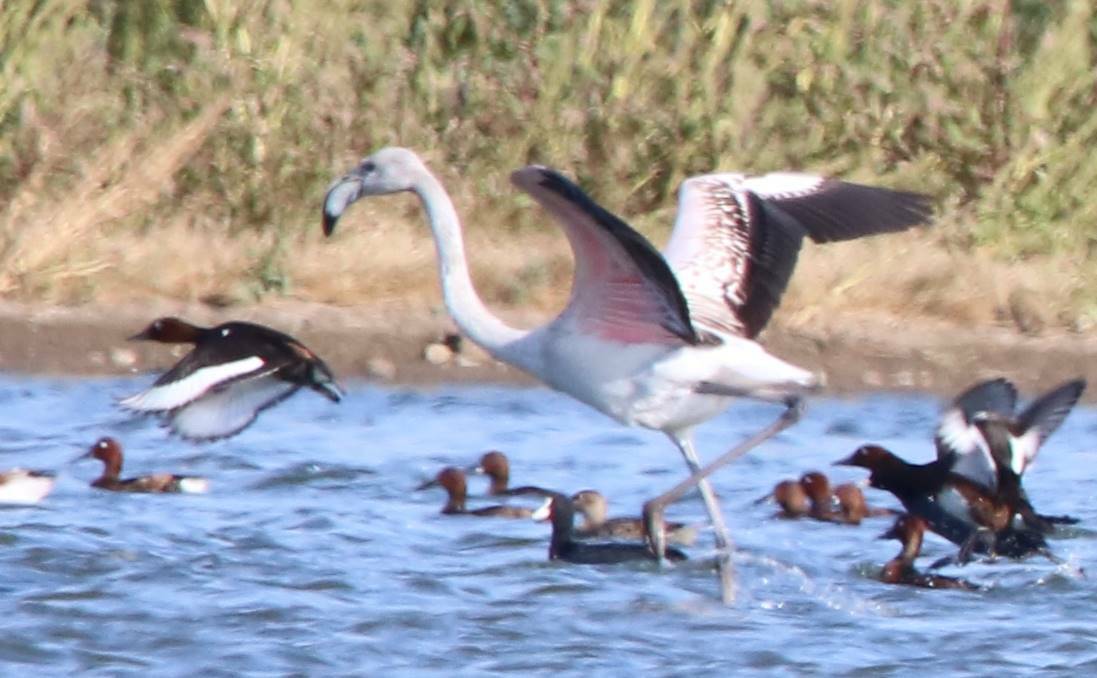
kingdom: Animalia
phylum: Chordata
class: Aves
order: Phoenicopteriformes
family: Phoenicopteridae
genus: Phoenicopterus
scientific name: Phoenicopterus roseus
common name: Greater flamingo
